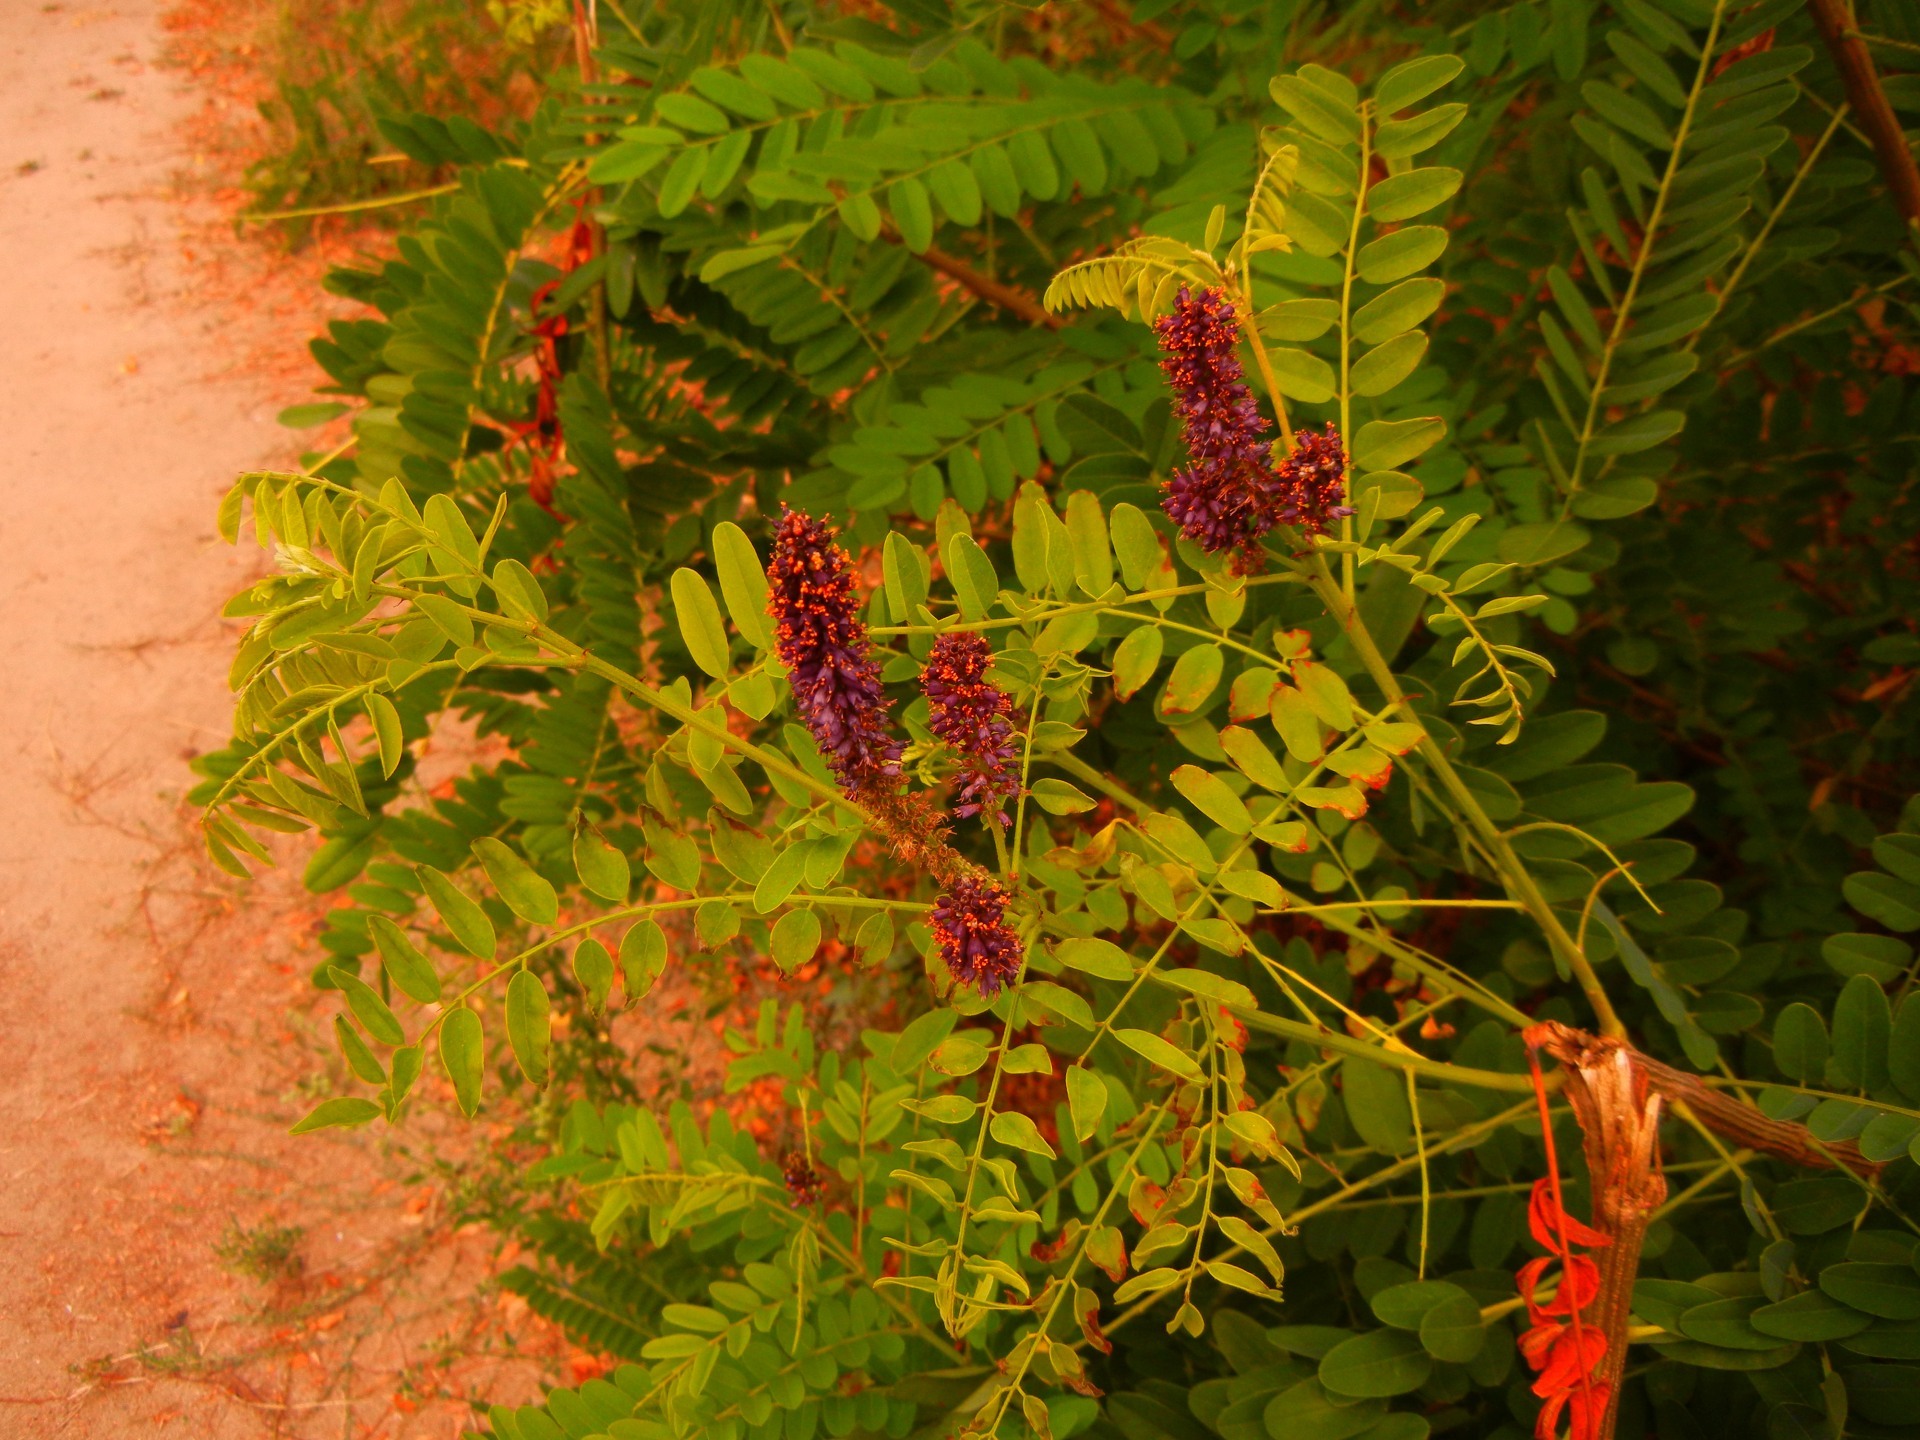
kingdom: Plantae
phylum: Tracheophyta
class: Magnoliopsida
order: Fabales
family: Fabaceae
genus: Amorpha
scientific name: Amorpha fruticosa
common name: False indigo
